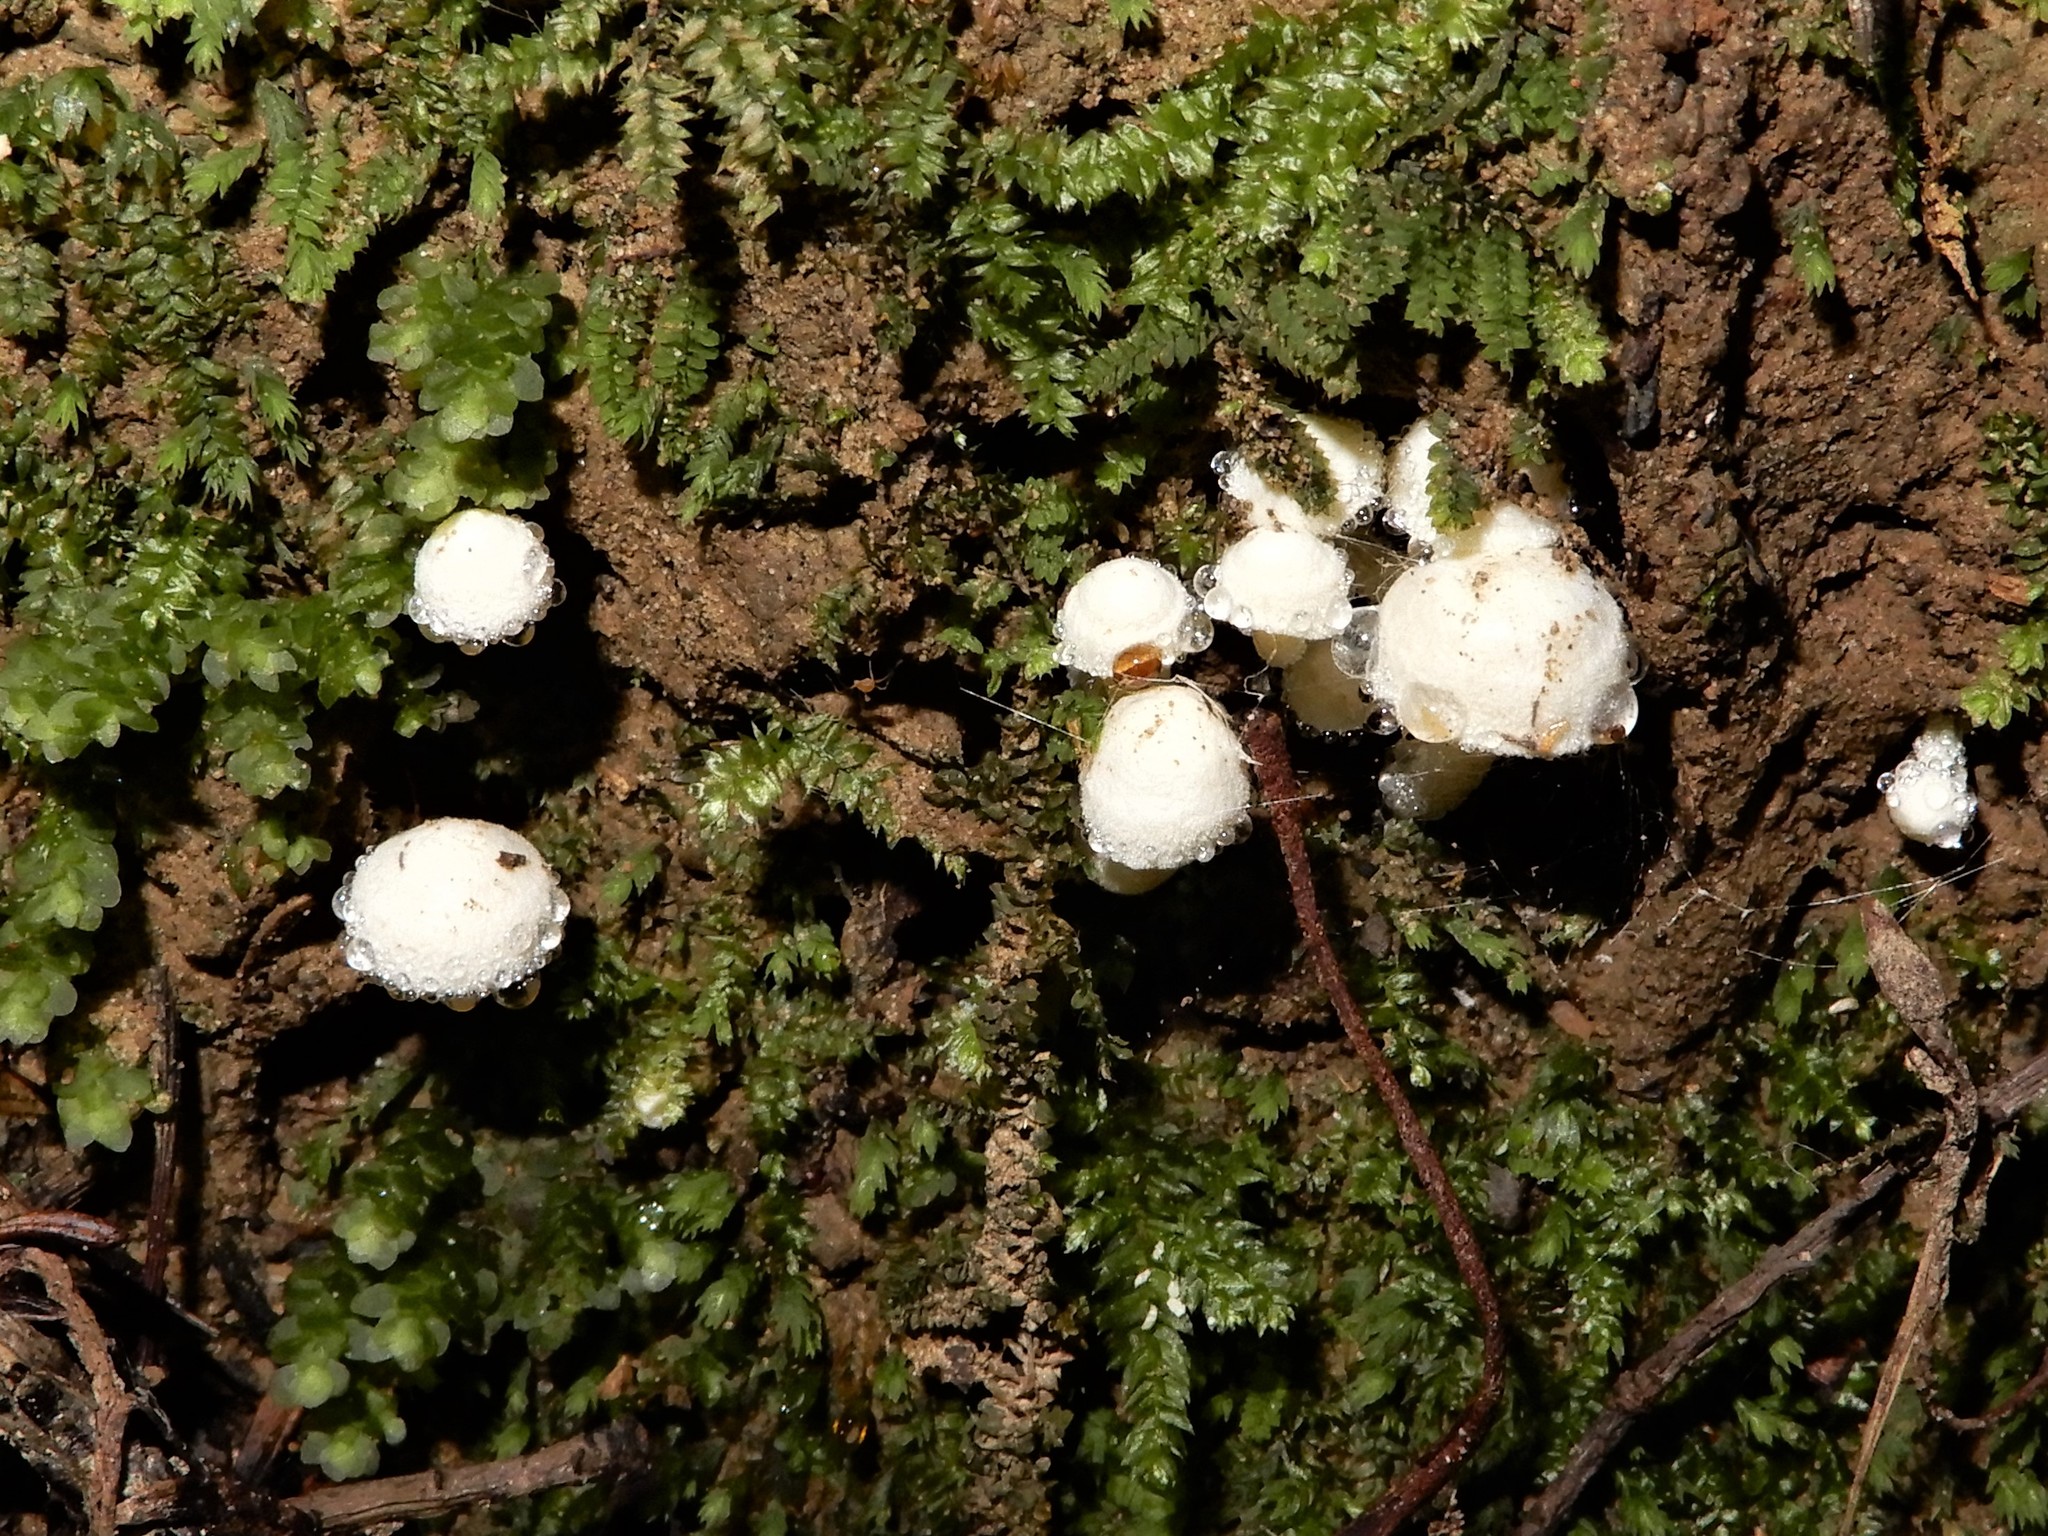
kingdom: Fungi
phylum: Basidiomycota
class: Agaricomycetes
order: Agaricales
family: Hygrophoraceae
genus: Hygrophorus
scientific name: Hygrophorus involutus
